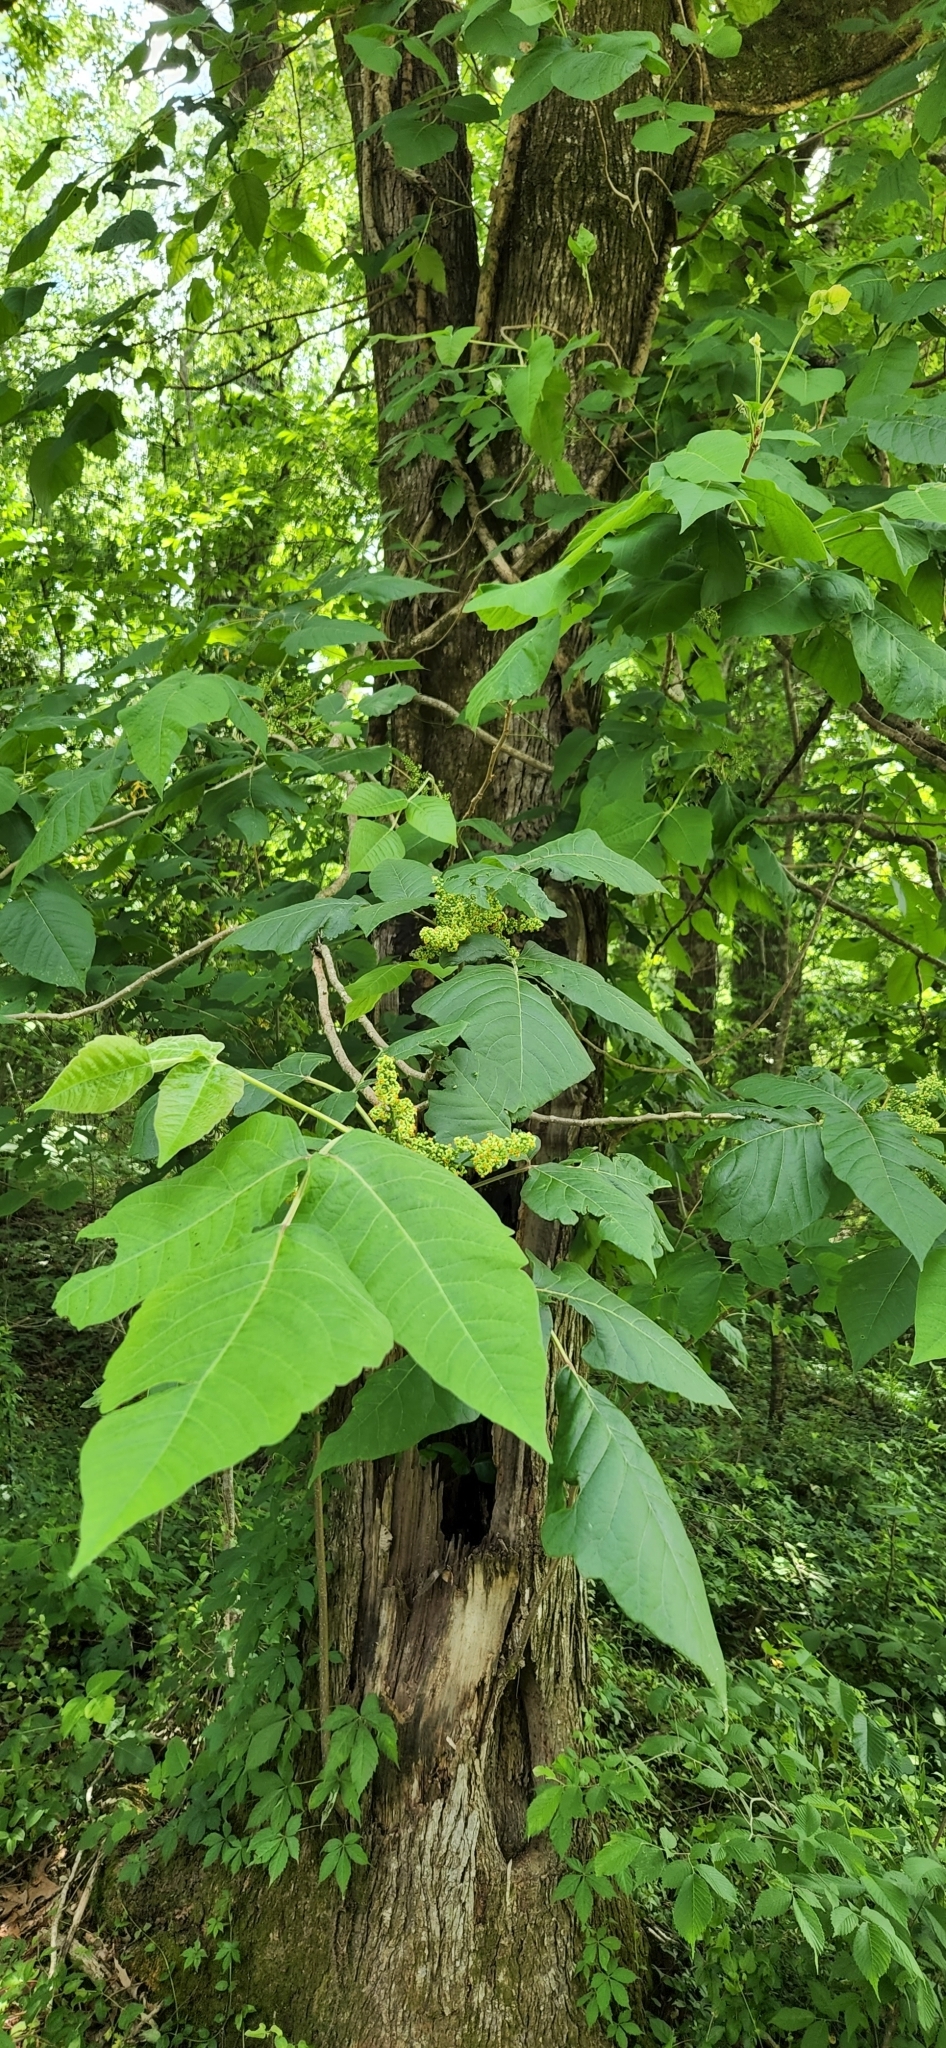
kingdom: Plantae
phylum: Tracheophyta
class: Magnoliopsida
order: Sapindales
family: Anacardiaceae
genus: Toxicodendron
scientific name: Toxicodendron radicans
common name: Poison ivy
